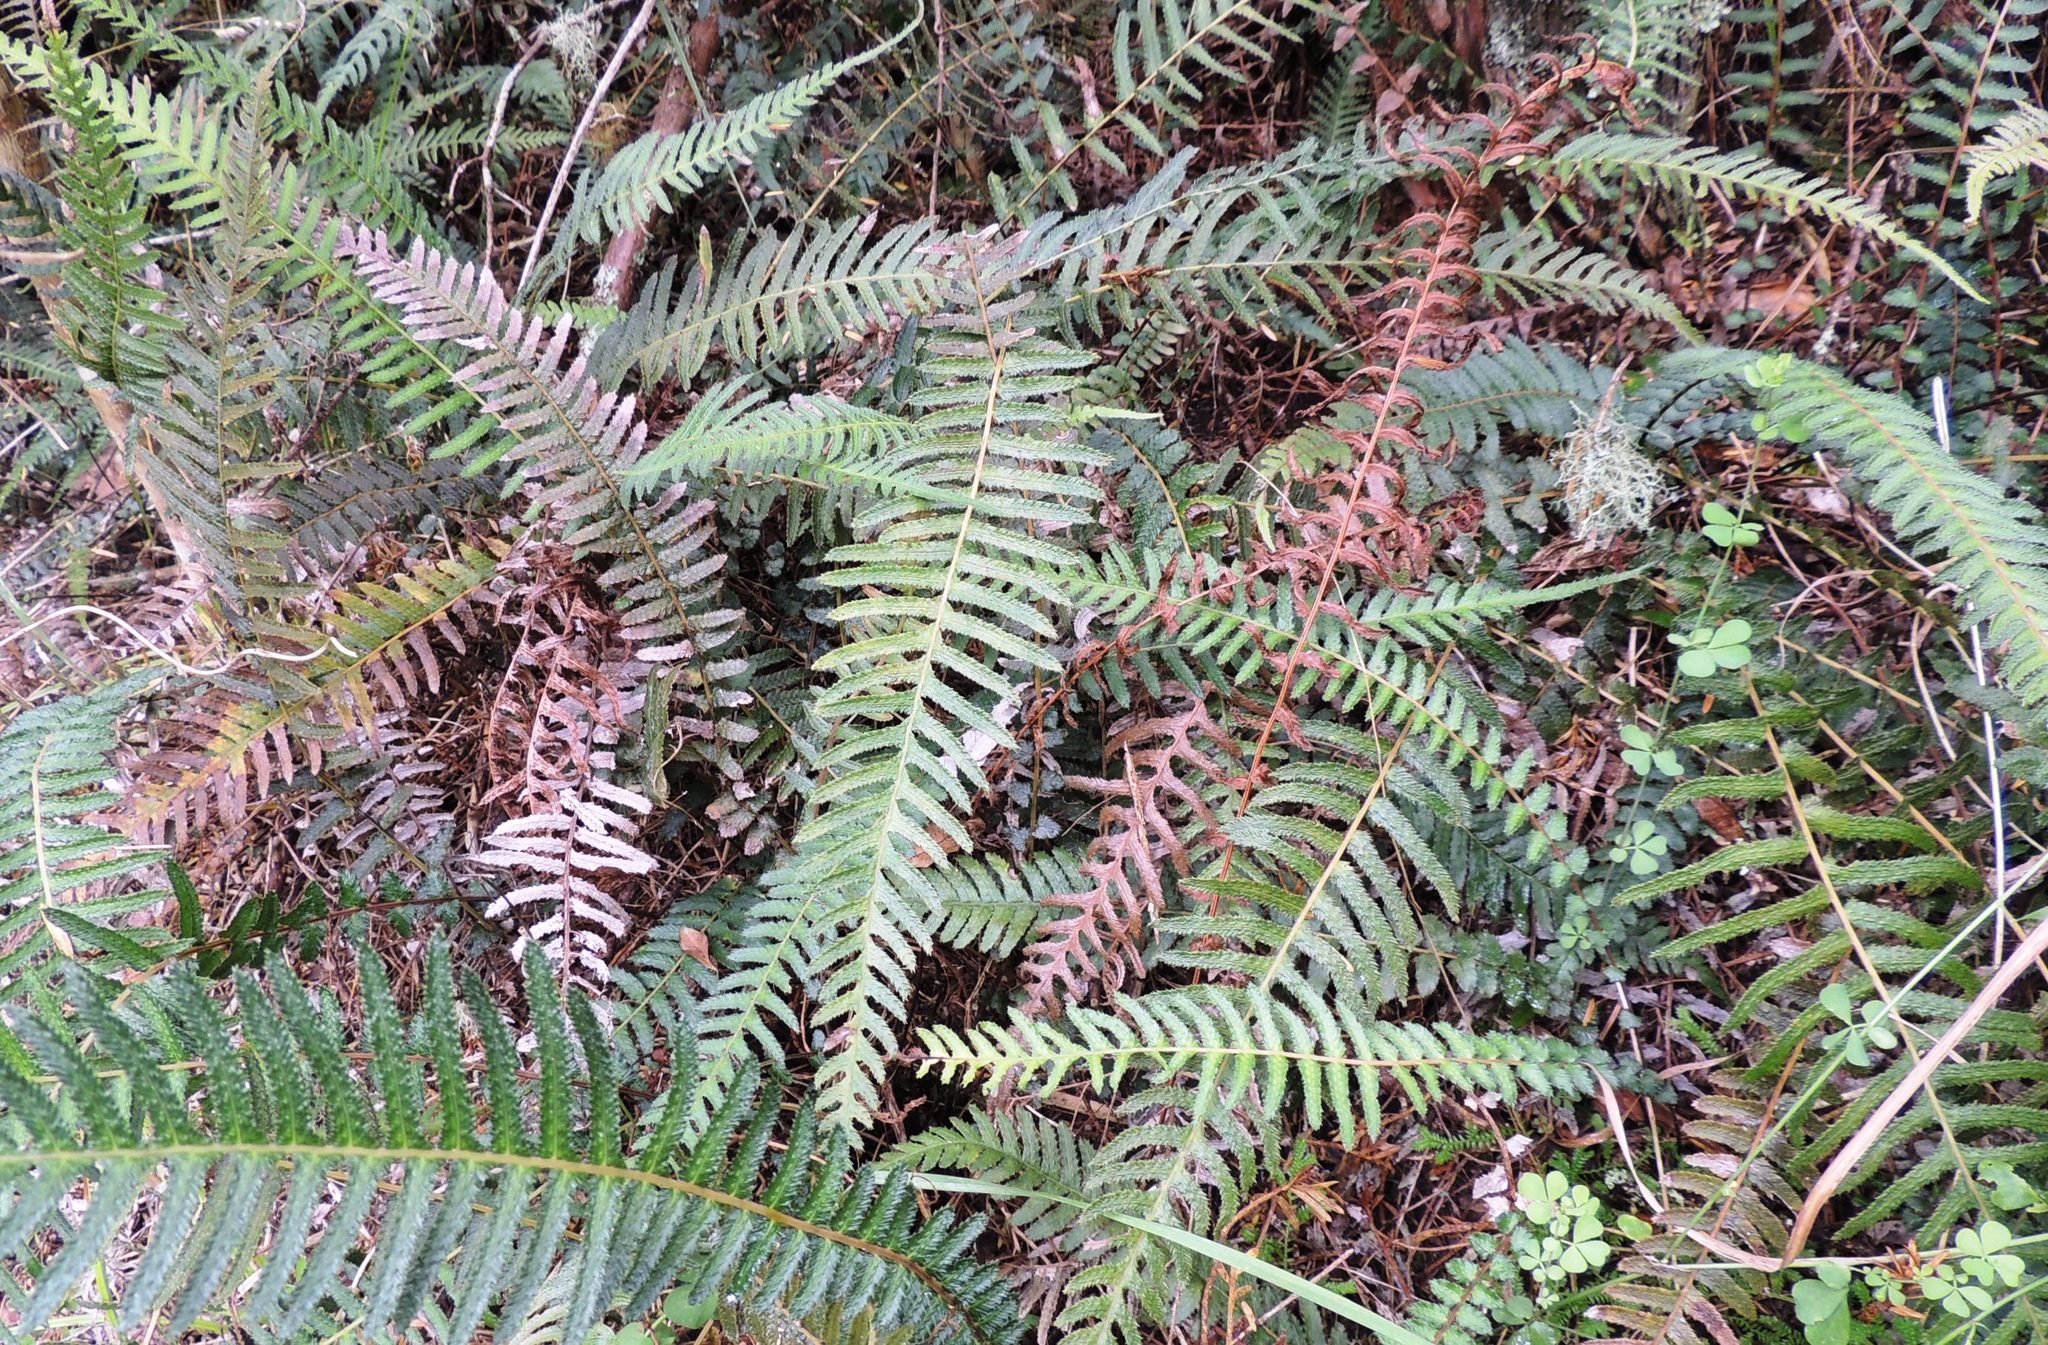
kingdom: Plantae
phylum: Tracheophyta
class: Polypodiopsida
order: Polypodiales
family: Blechnaceae
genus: Doodia
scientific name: Doodia australis
